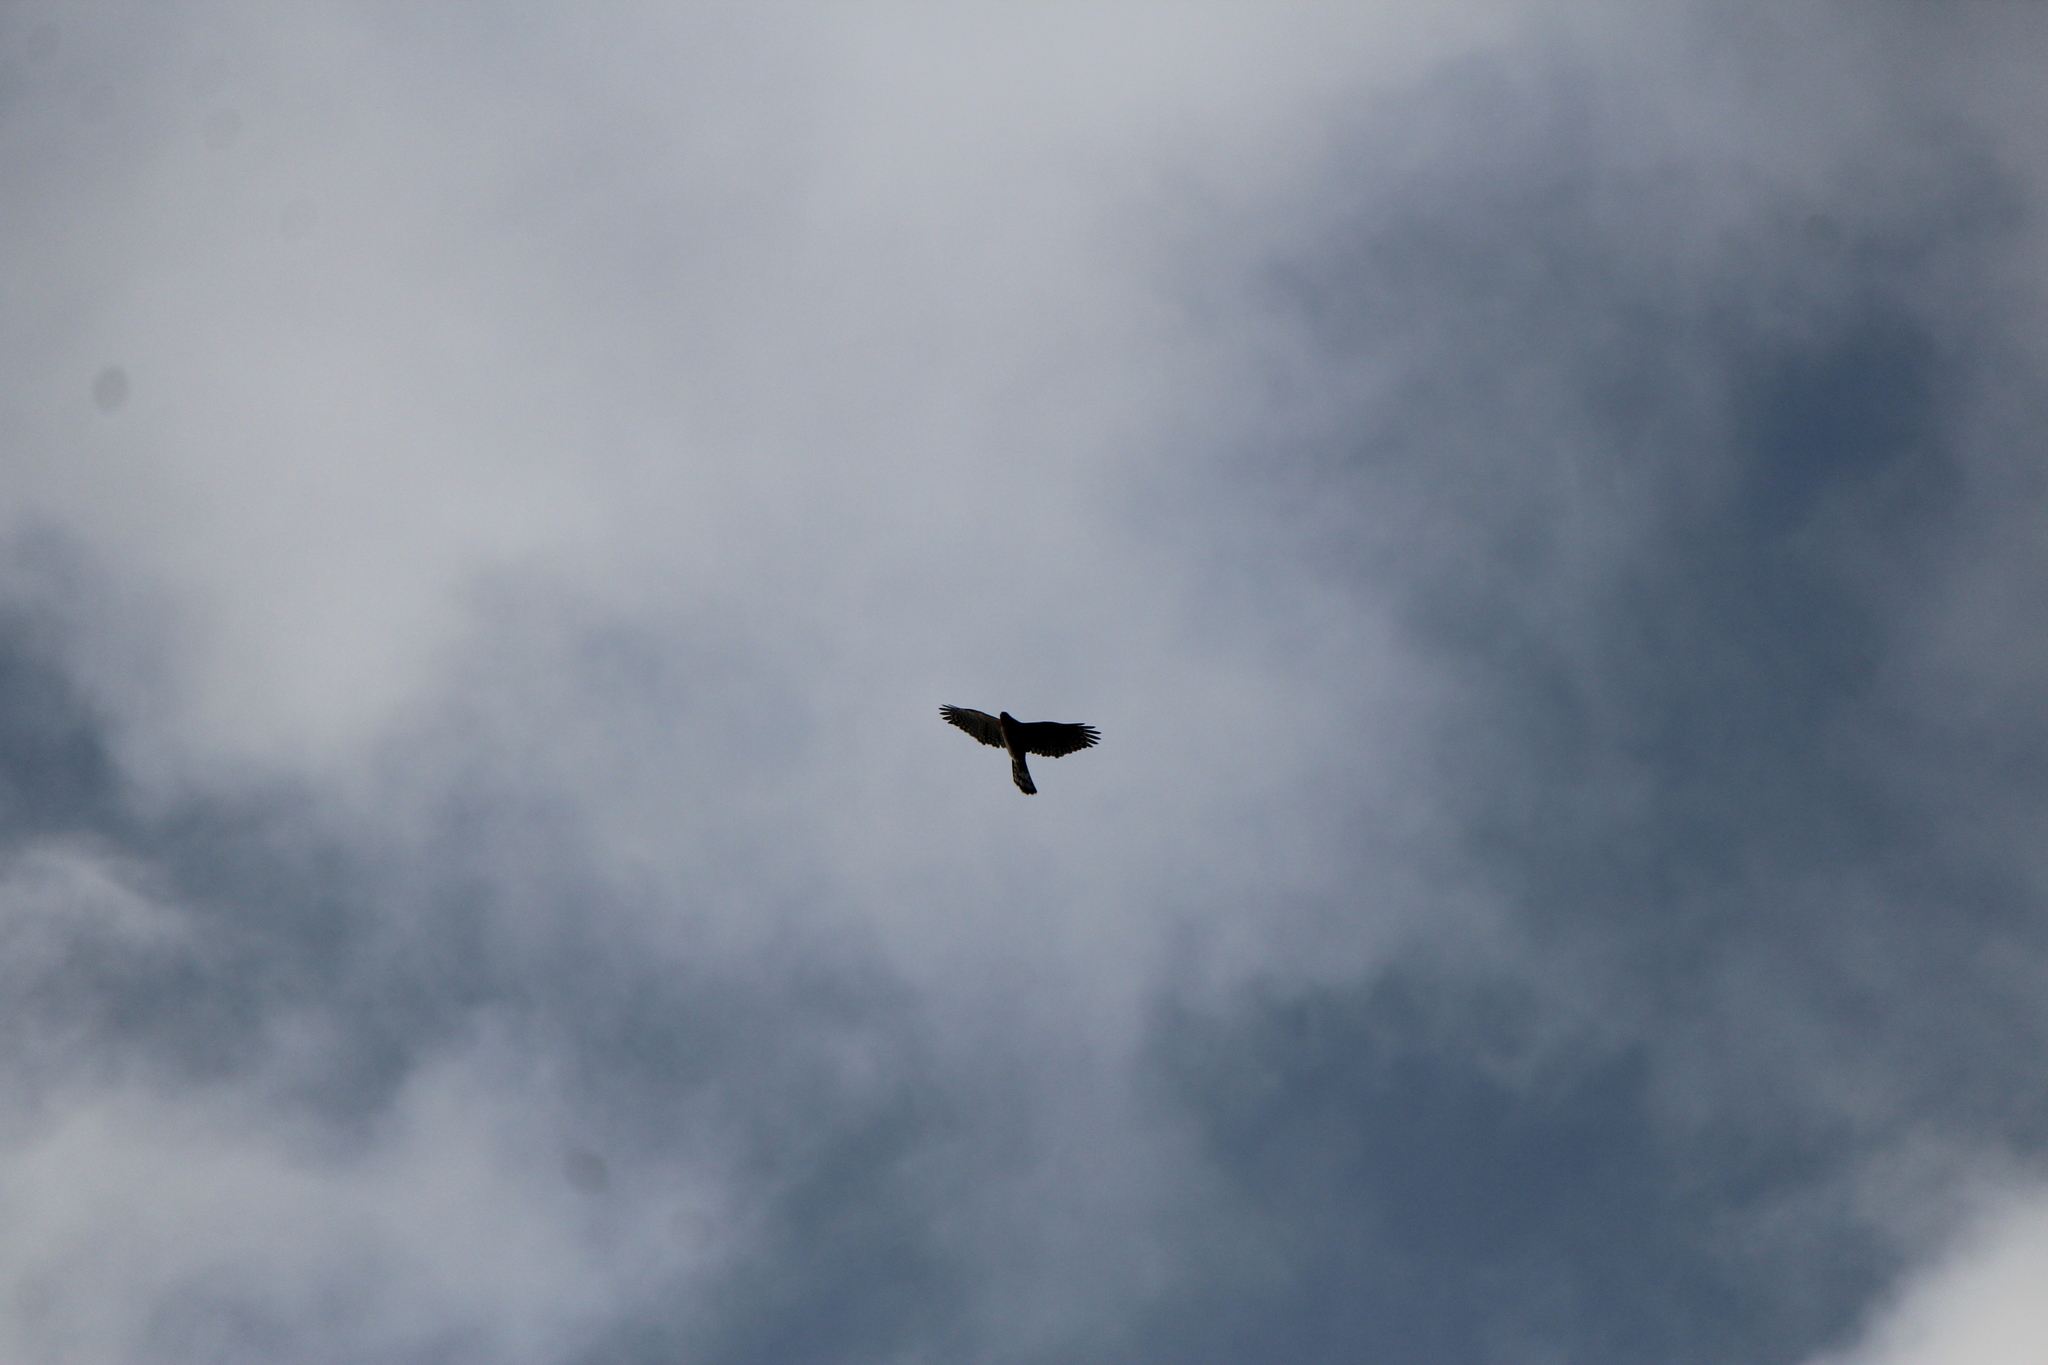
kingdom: Animalia
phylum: Chordata
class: Aves
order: Accipitriformes
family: Accipitridae
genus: Accipiter
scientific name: Accipiter cooperii
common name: Cooper's hawk
